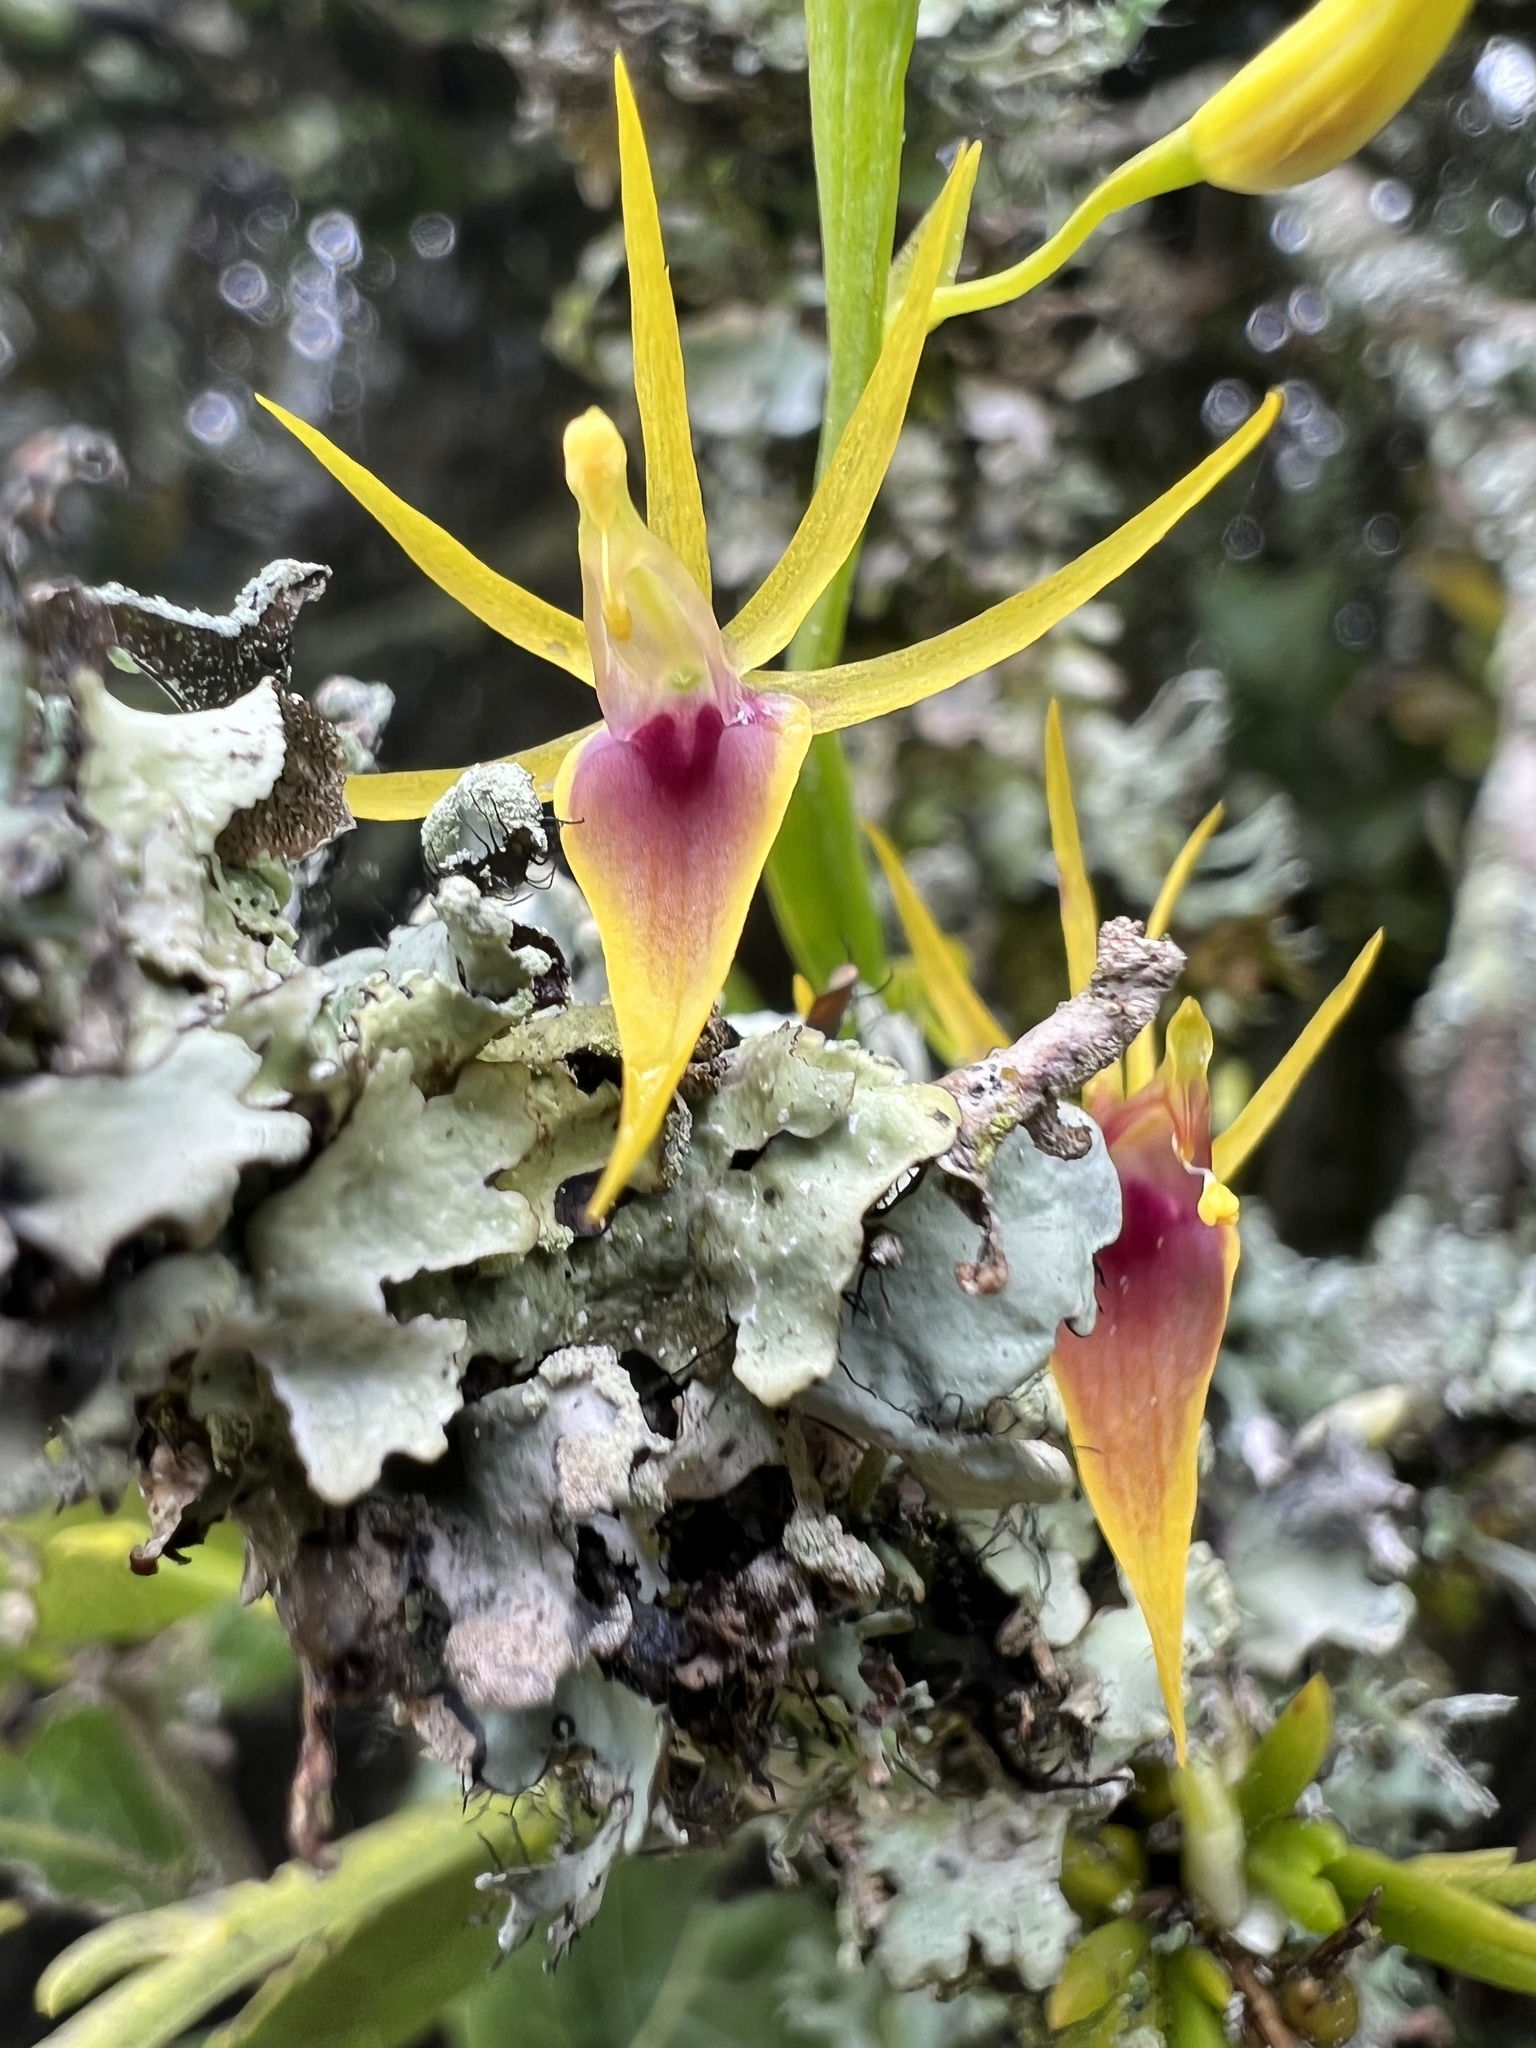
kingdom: Plantae
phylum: Tracheophyta
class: Liliopsida
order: Asparagales
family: Orchidaceae
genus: Hofmeisterella
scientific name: Hofmeisterella eumicroscopica
